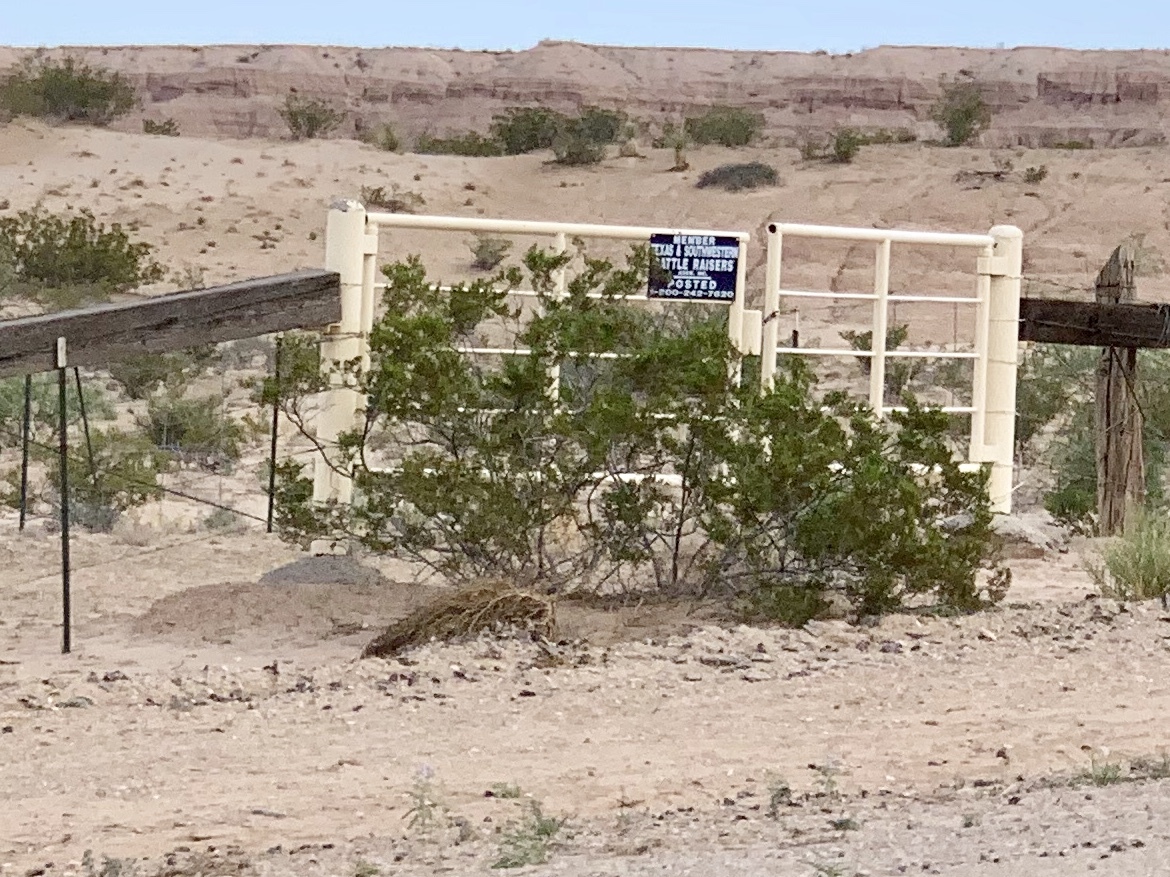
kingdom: Plantae
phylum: Tracheophyta
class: Magnoliopsida
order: Zygophyllales
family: Zygophyllaceae
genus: Larrea
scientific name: Larrea tridentata
